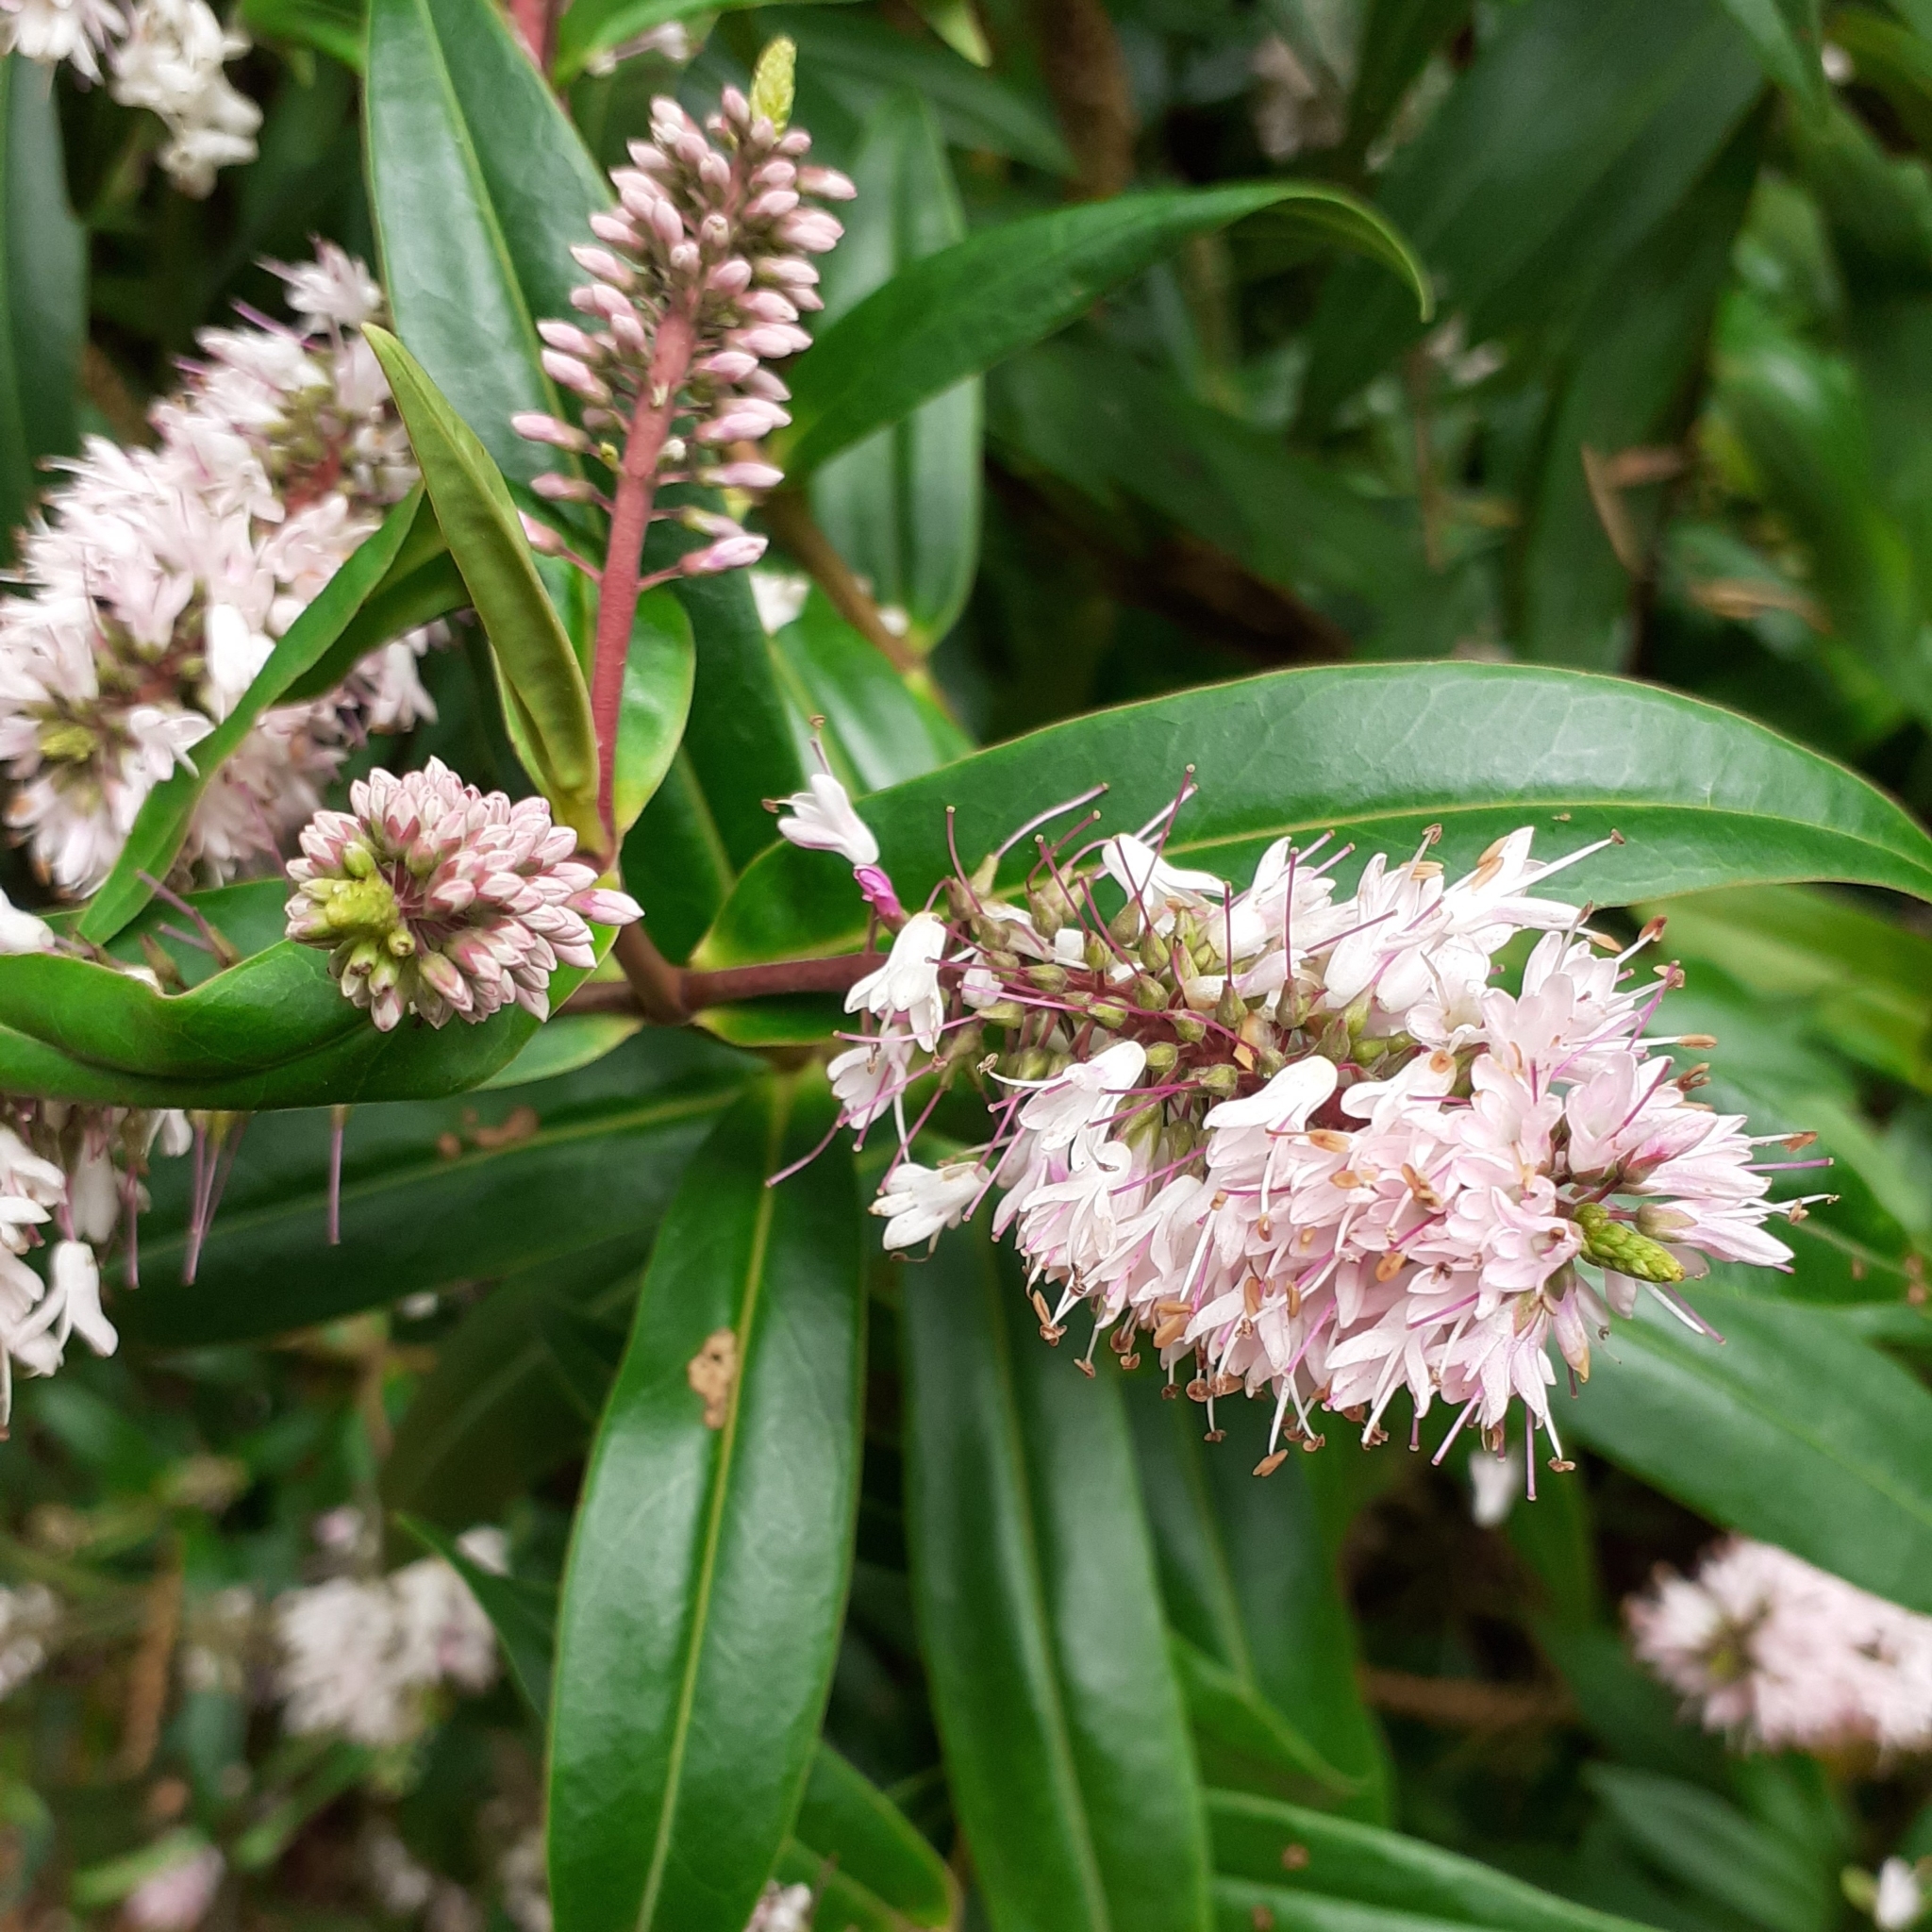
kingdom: Plantae
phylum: Tracheophyta
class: Magnoliopsida
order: Lamiales
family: Plantaginaceae
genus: Veronica
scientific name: Veronica salicifolia
